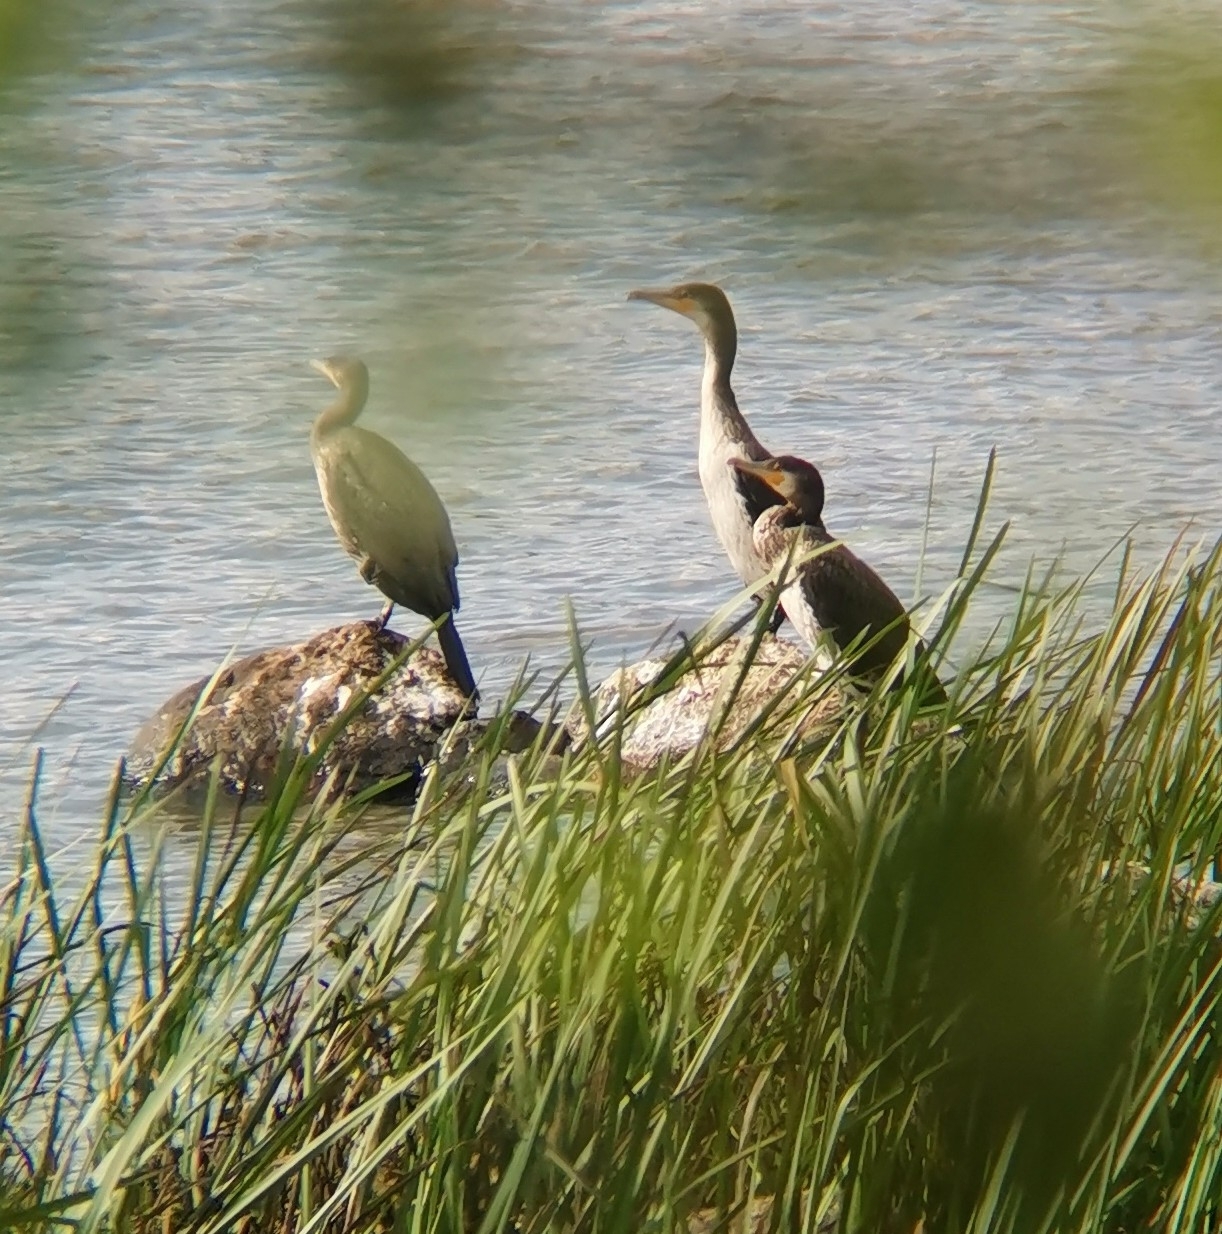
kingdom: Animalia
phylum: Chordata
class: Aves
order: Suliformes
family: Phalacrocoracidae
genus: Phalacrocorax
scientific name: Phalacrocorax carbo
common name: Great cormorant
